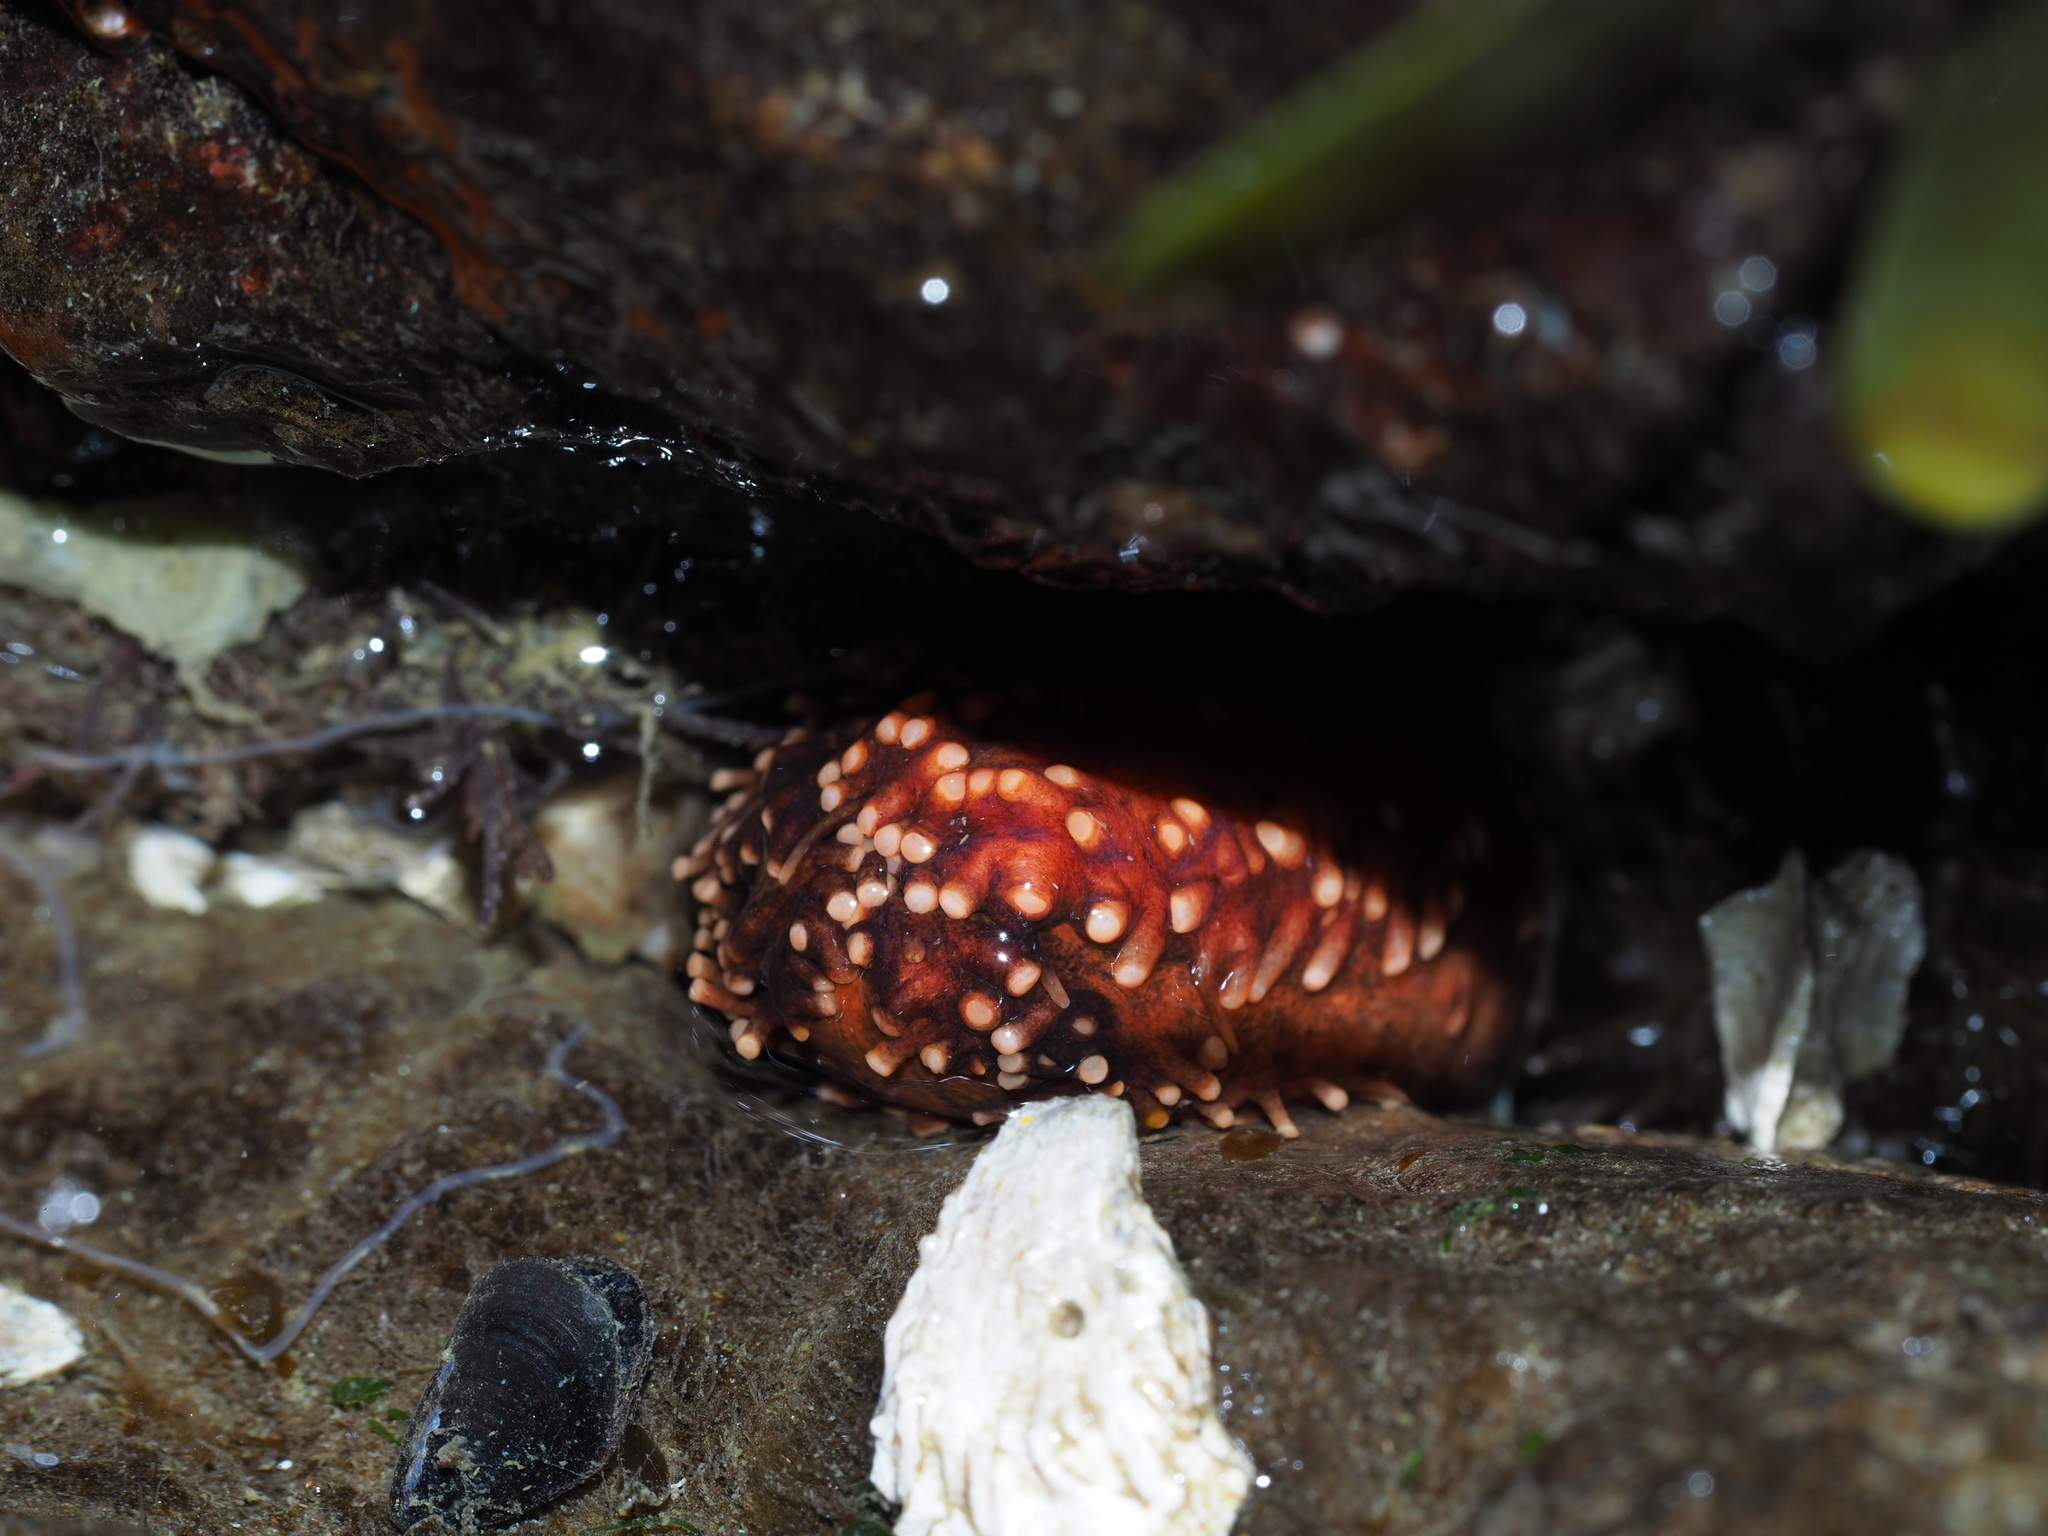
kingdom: Animalia
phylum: Echinodermata
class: Holothuroidea
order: Dendrochirotida
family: Cucumariidae
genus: Cucumaria
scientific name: Cucumaria miniata
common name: Orange sea cucumber
